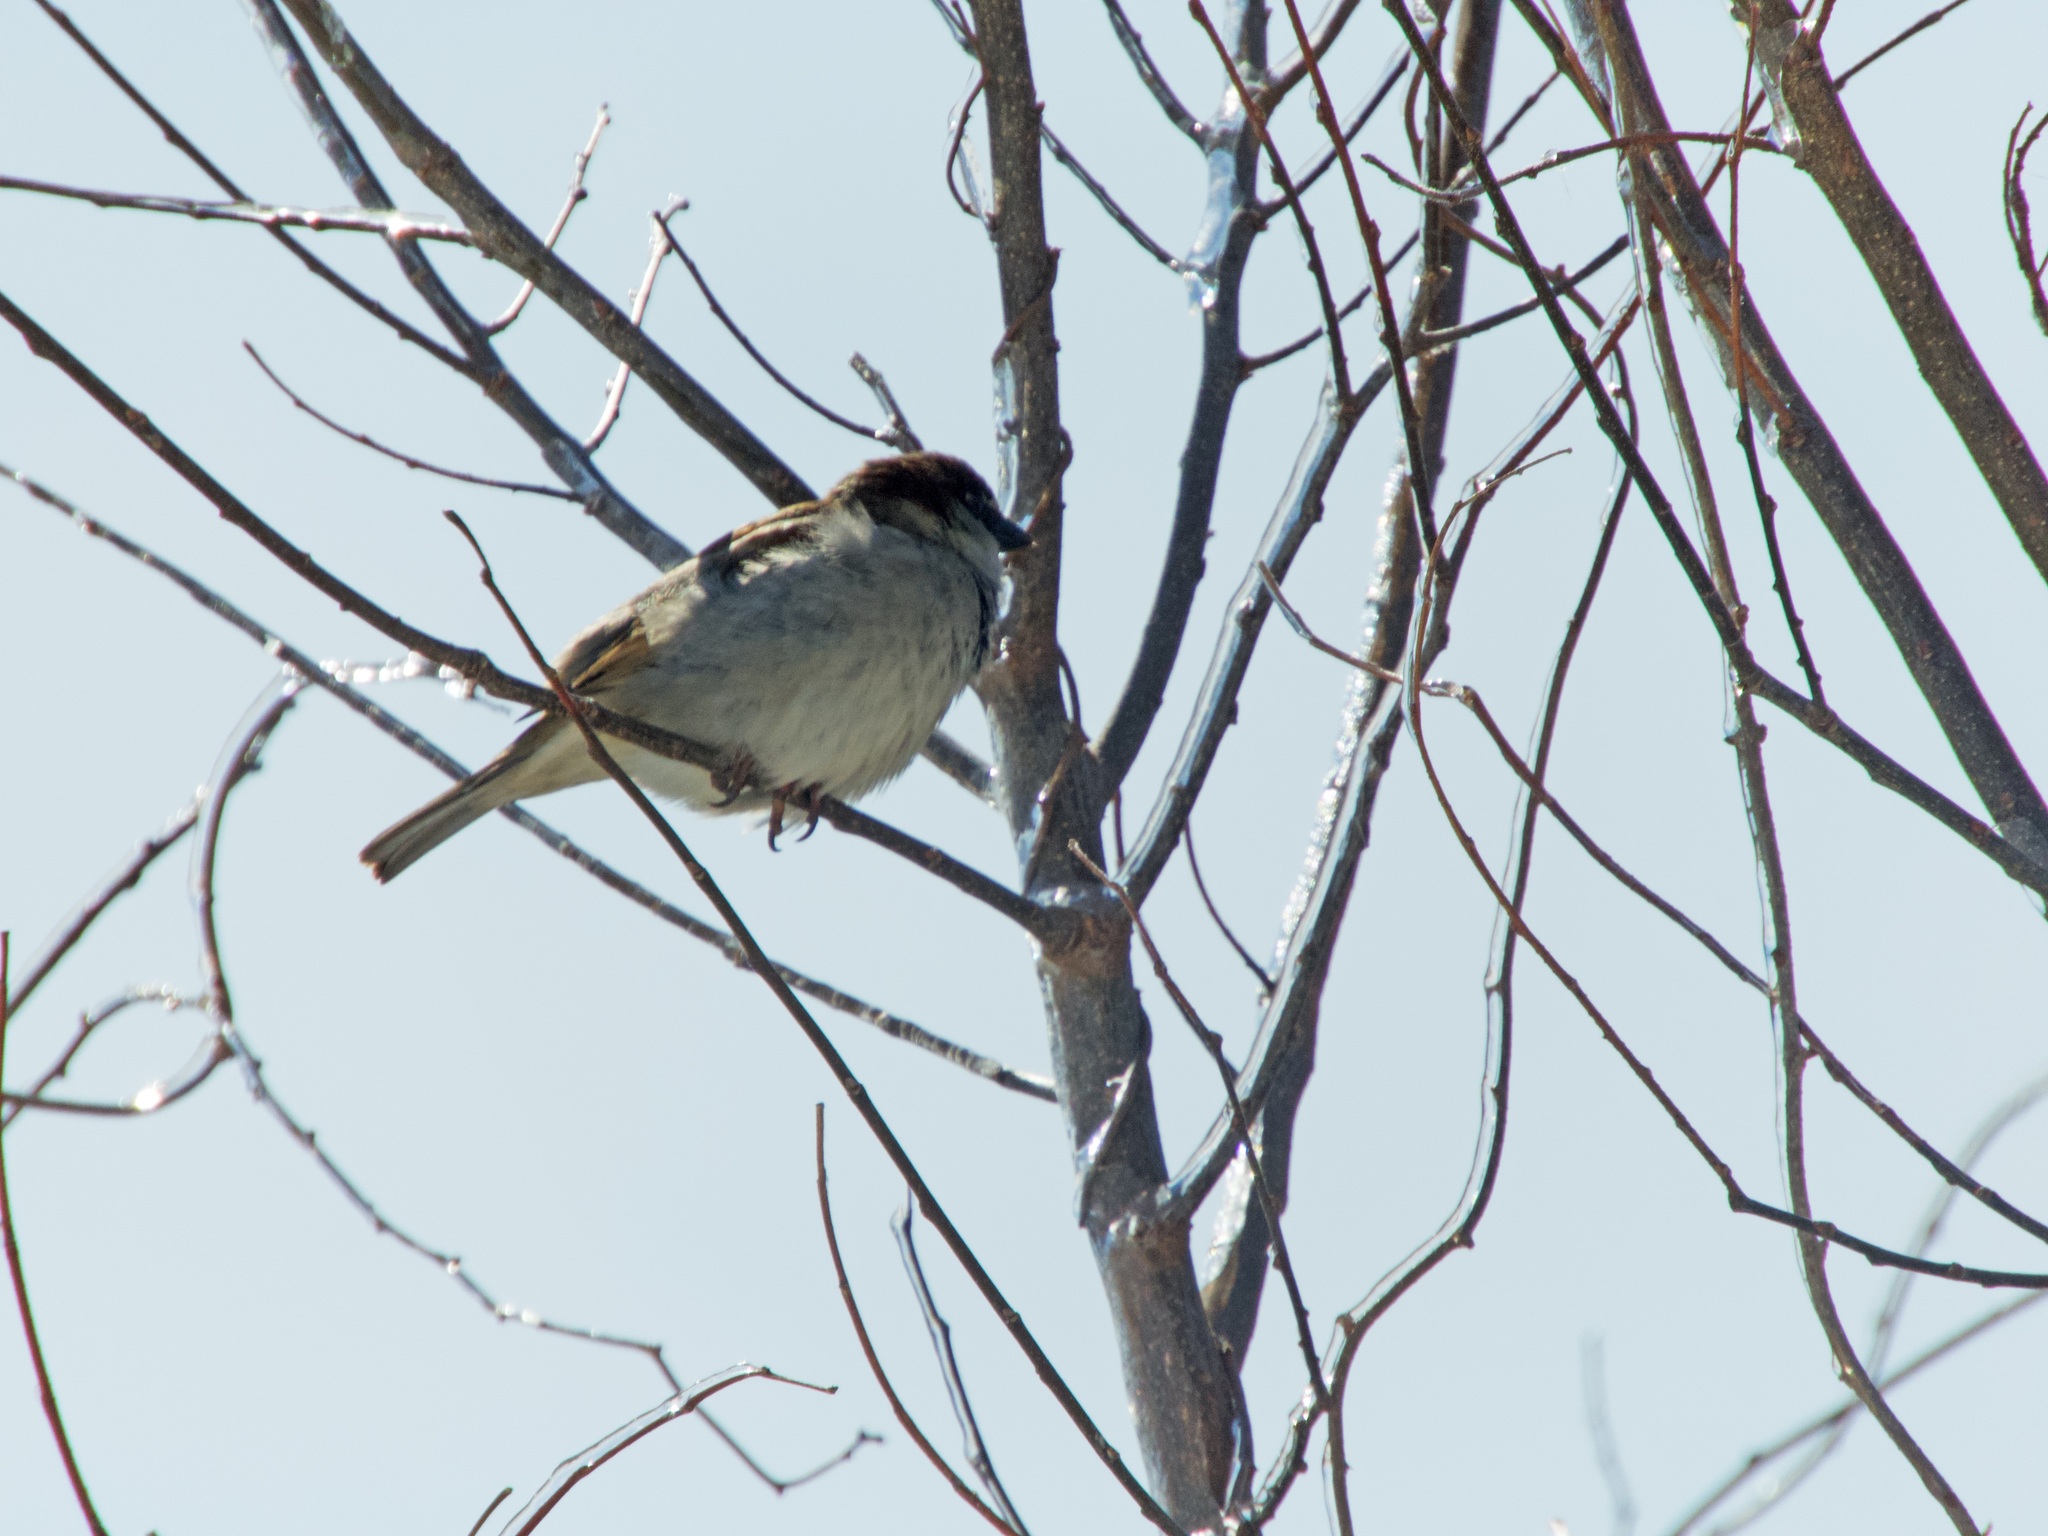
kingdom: Animalia
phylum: Chordata
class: Aves
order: Passeriformes
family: Passeridae
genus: Passer
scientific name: Passer domesticus
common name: House sparrow
